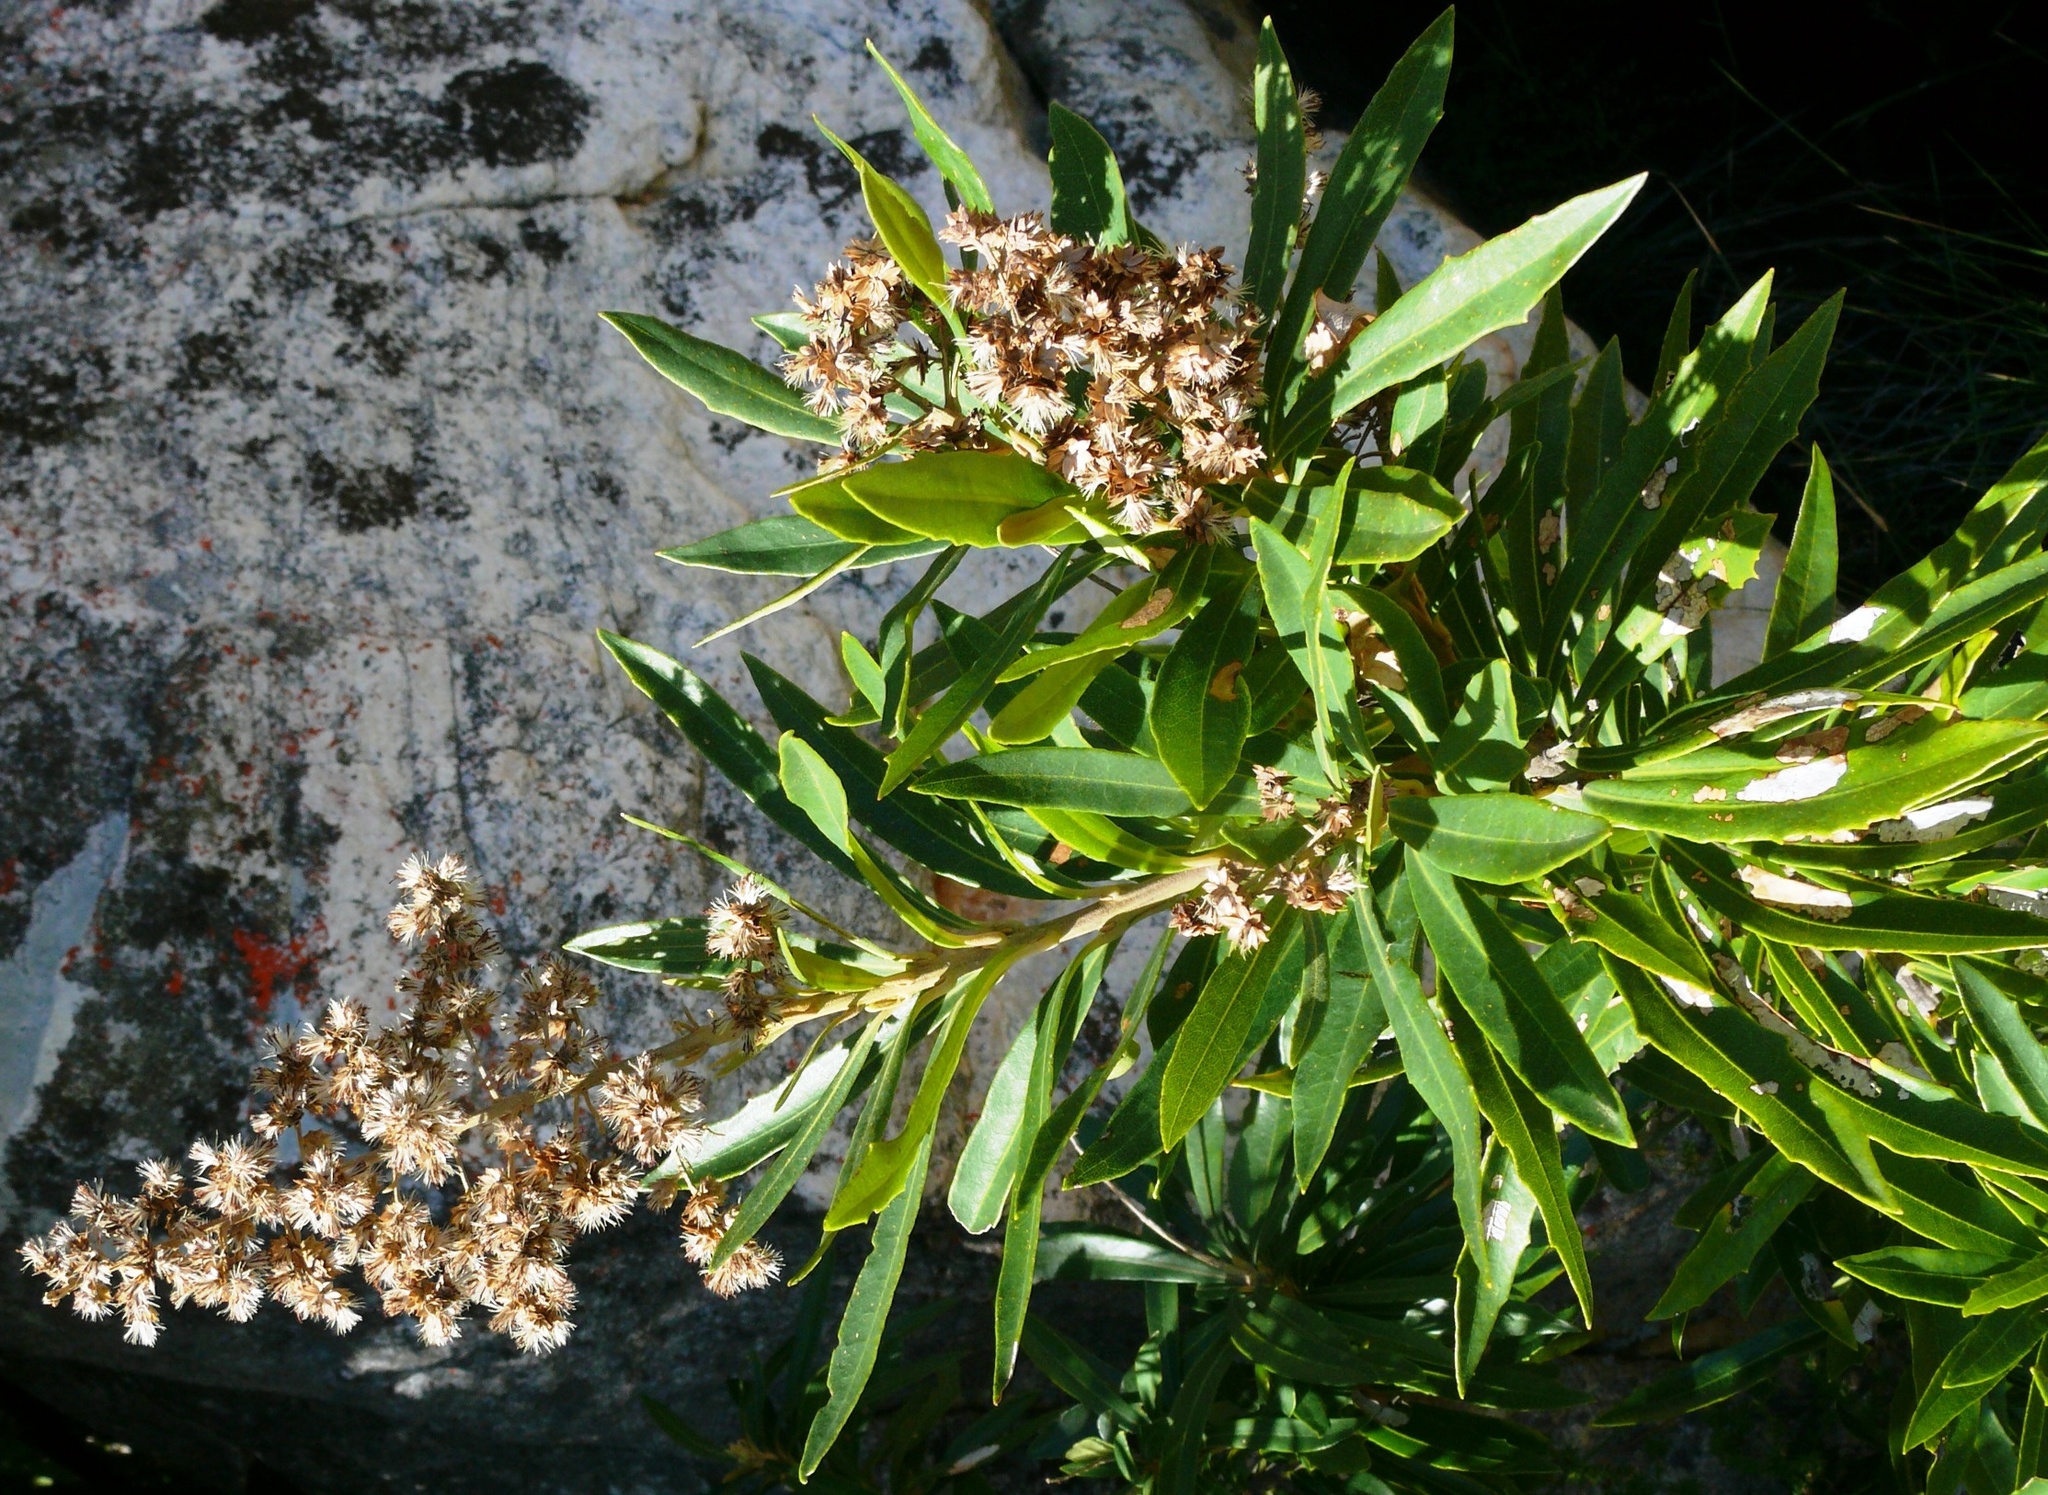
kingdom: Plantae
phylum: Tracheophyta
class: Magnoliopsida
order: Asterales
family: Asteraceae
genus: Brachylaena
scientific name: Brachylaena neriifolia
